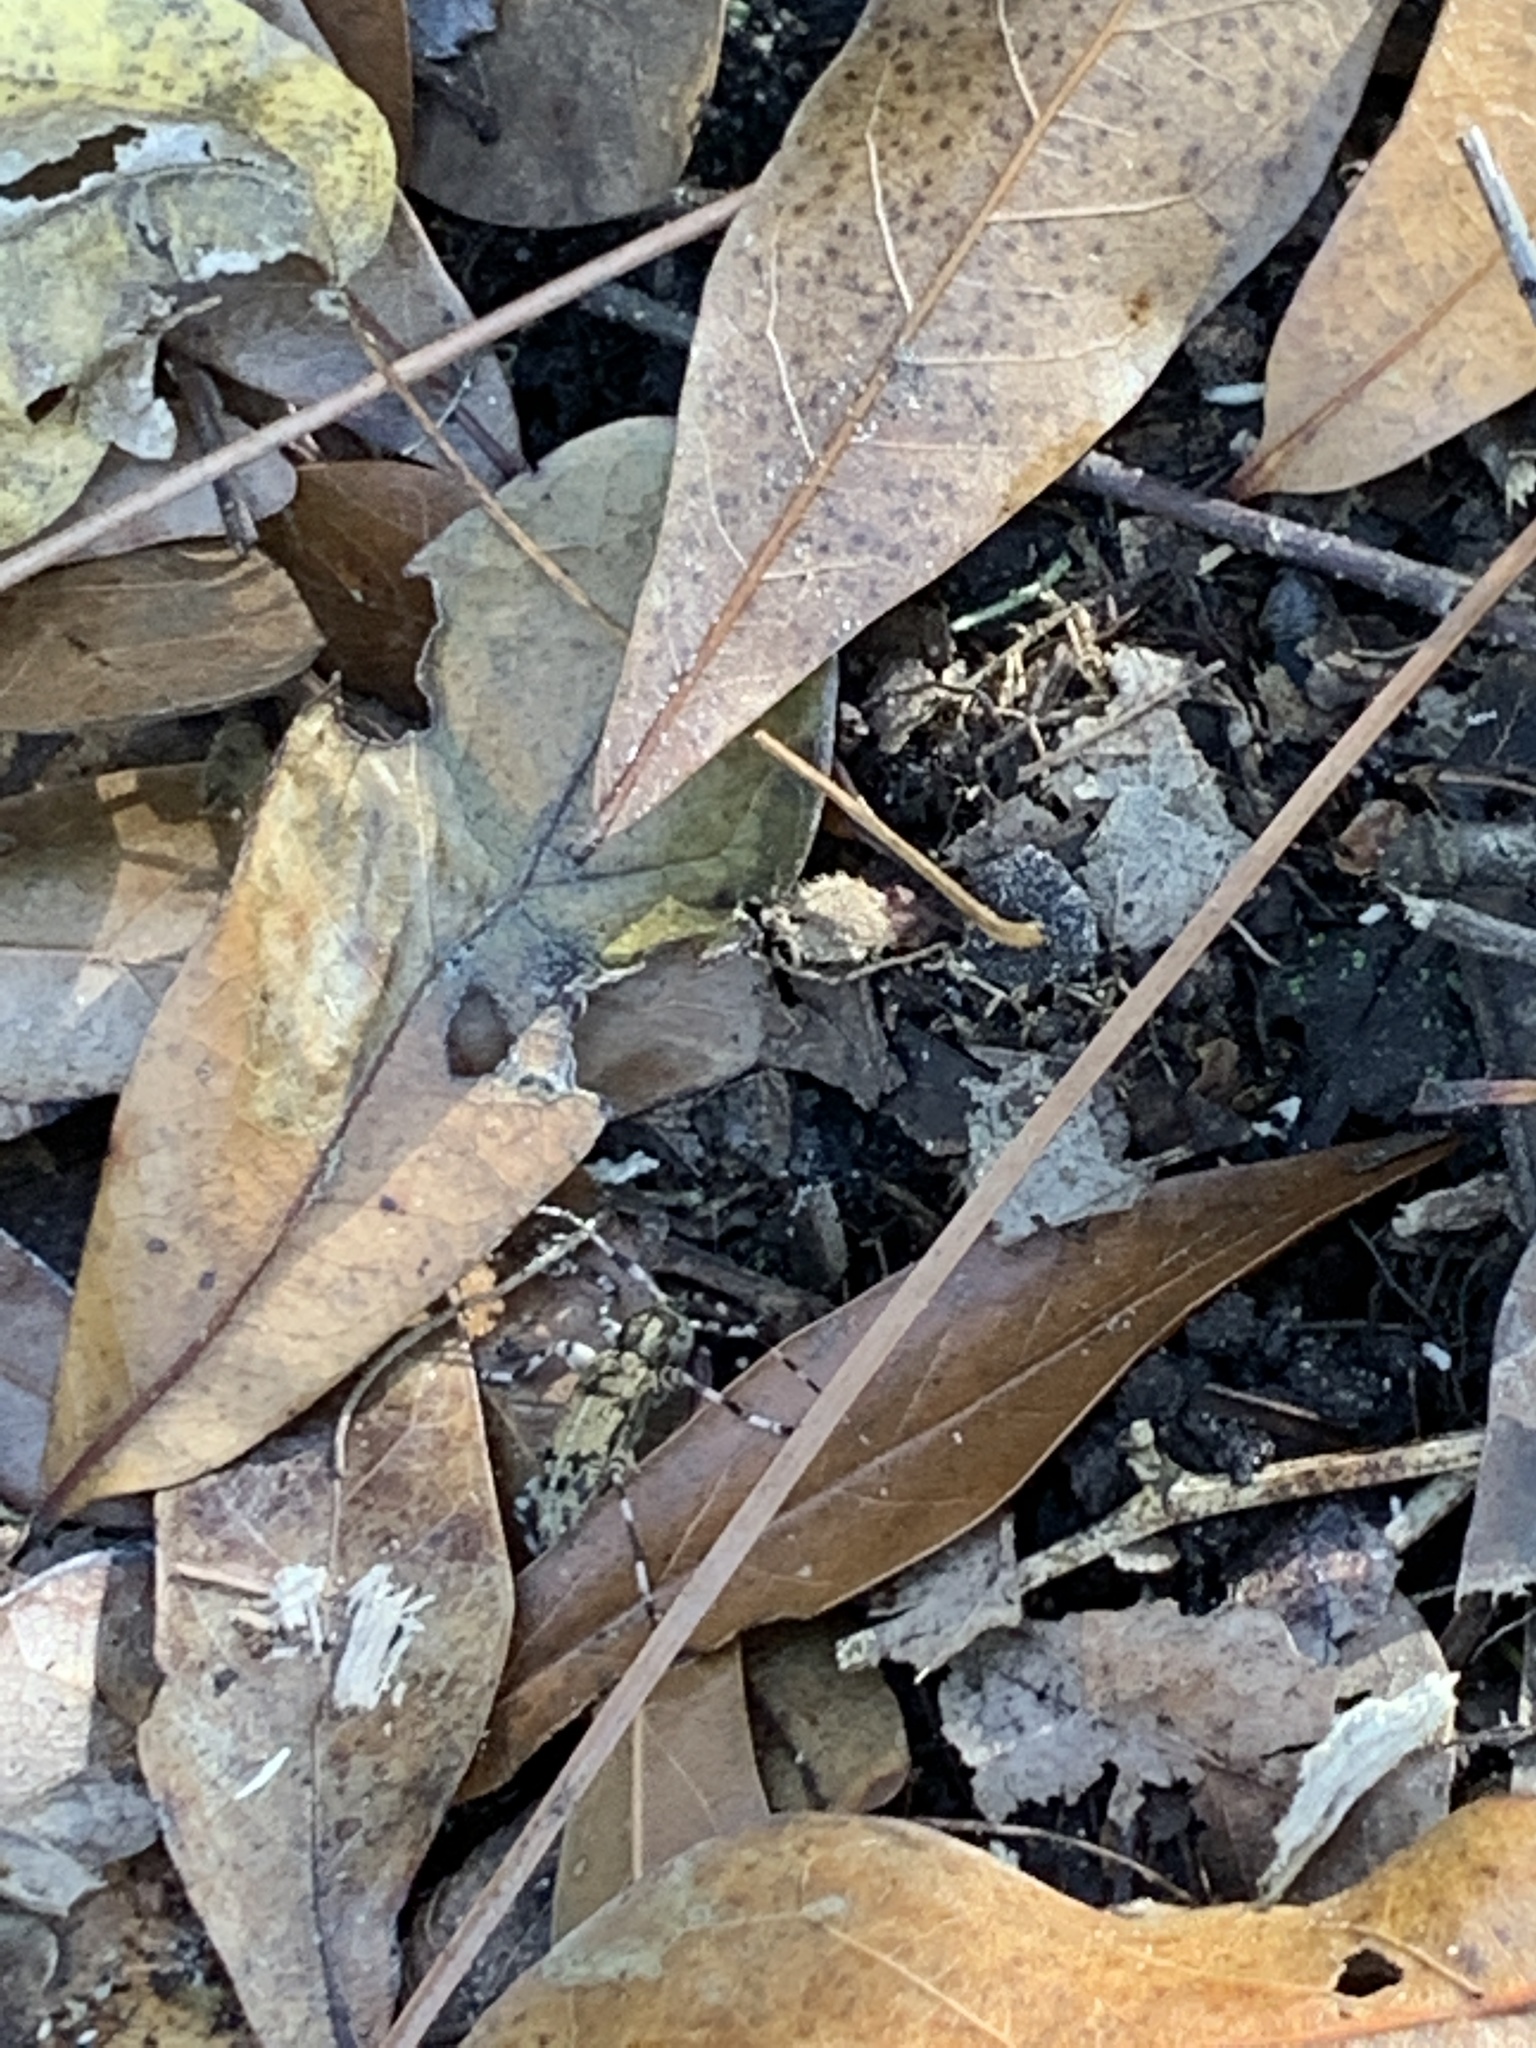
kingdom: Animalia
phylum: Arthropoda
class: Insecta
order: Coleoptera
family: Cerambycidae
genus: Graphisurus
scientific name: Graphisurus fasciatus
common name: Banded graphisurus
